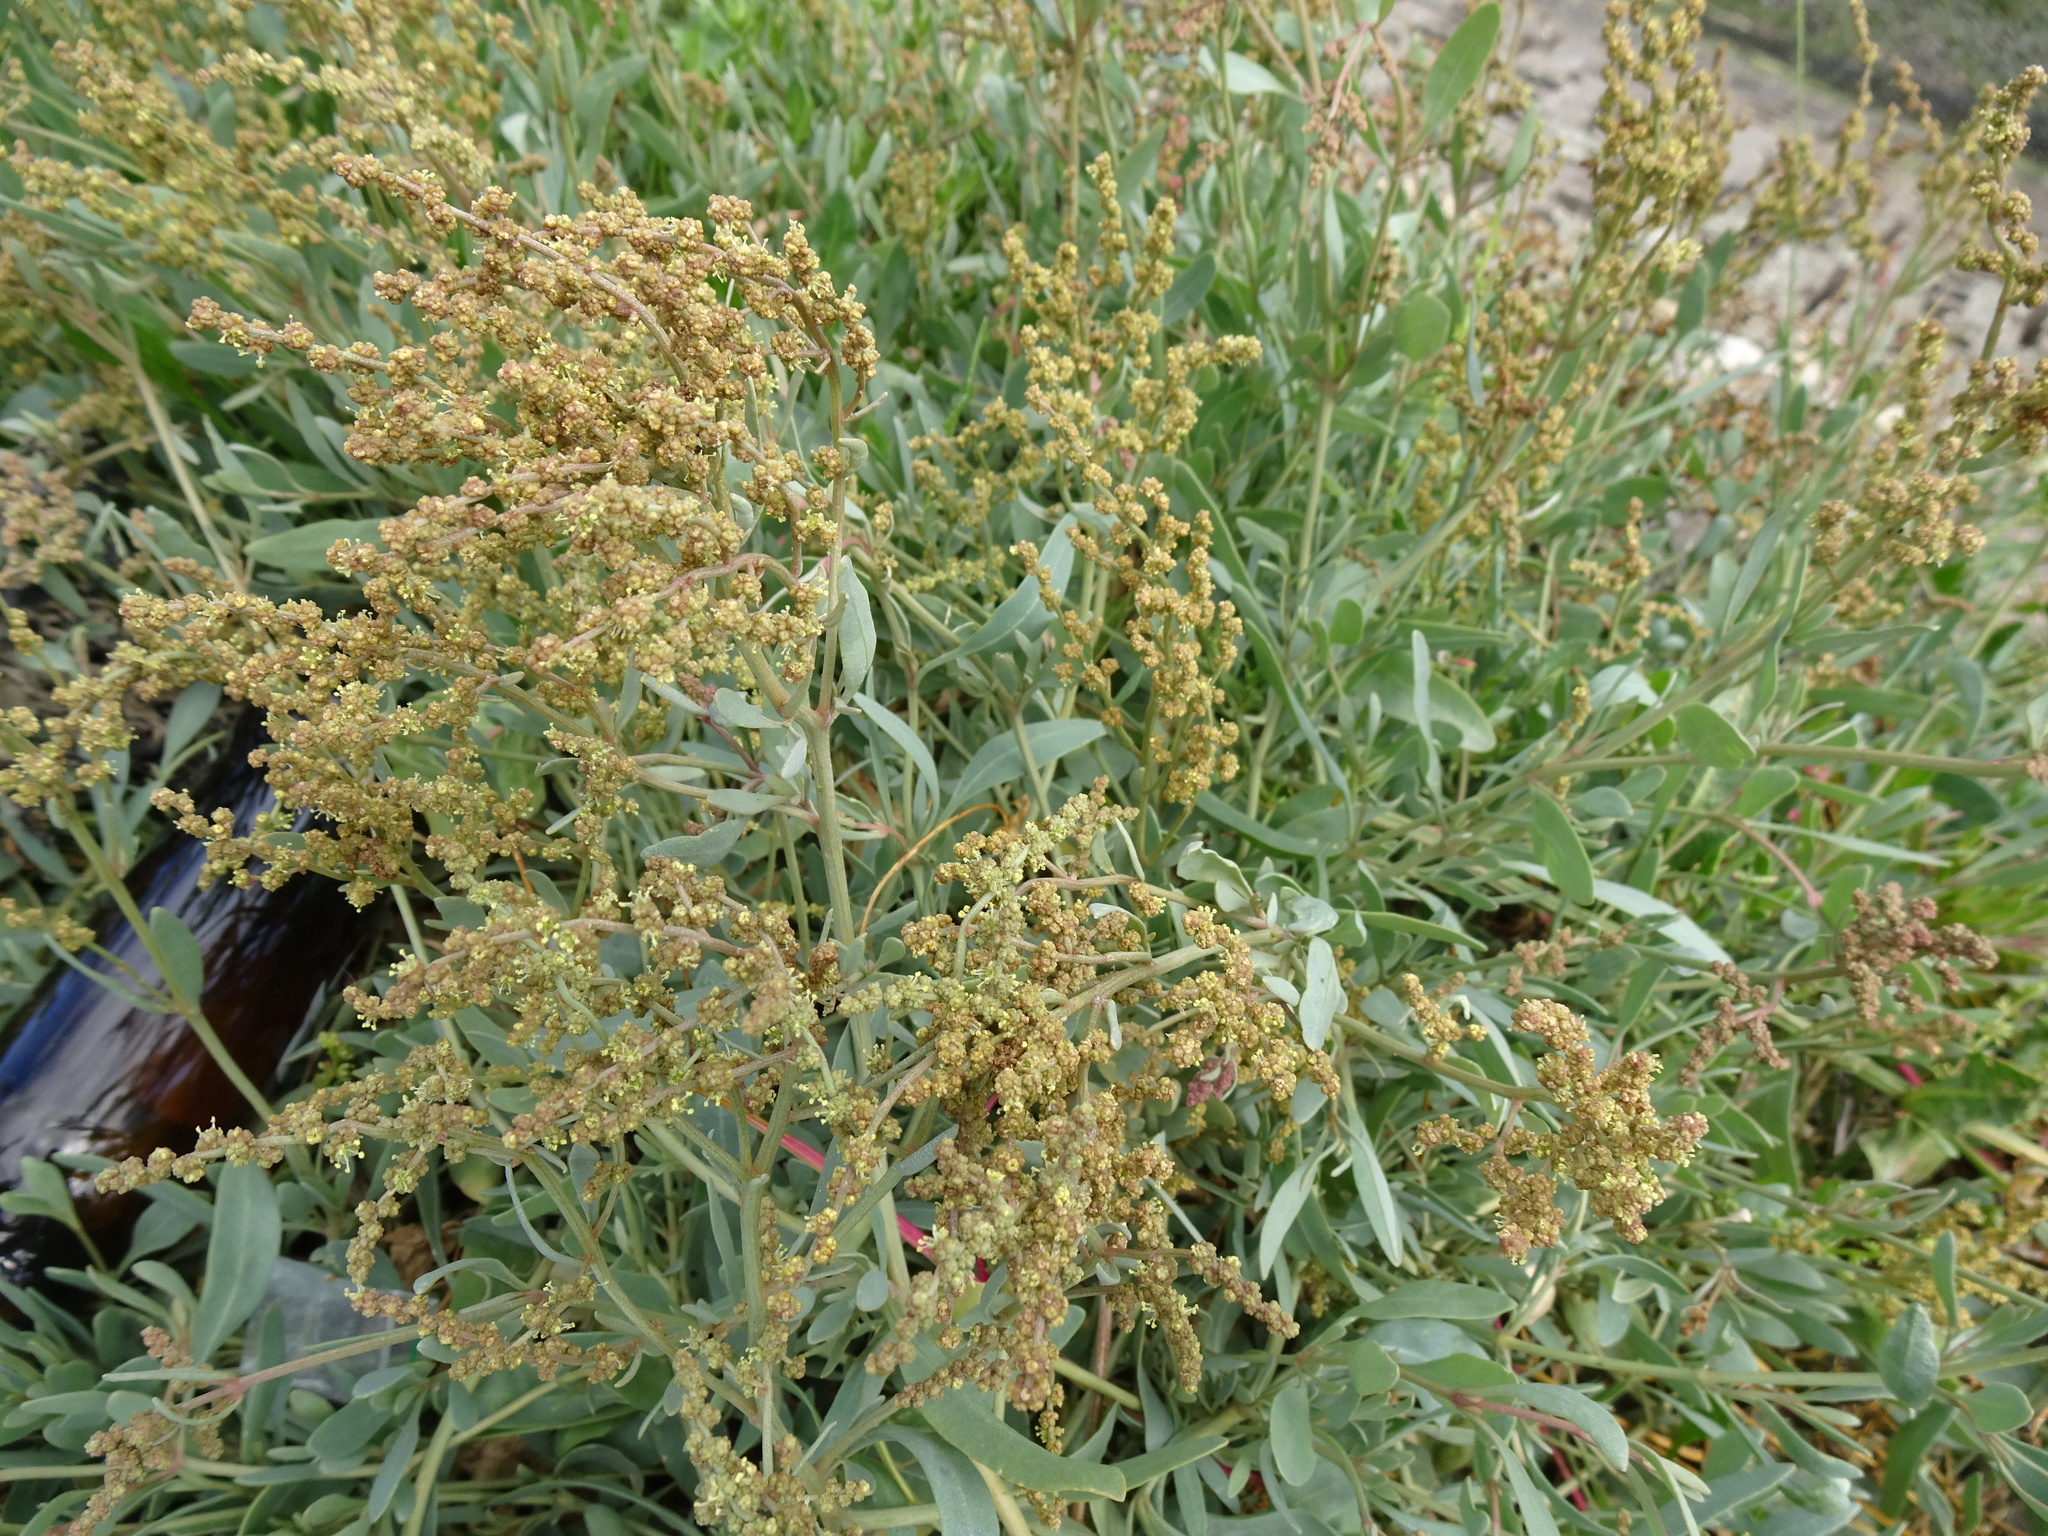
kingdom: Plantae
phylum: Tracheophyta
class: Magnoliopsida
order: Caryophyllales
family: Amaranthaceae
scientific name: Amaranthaceae
